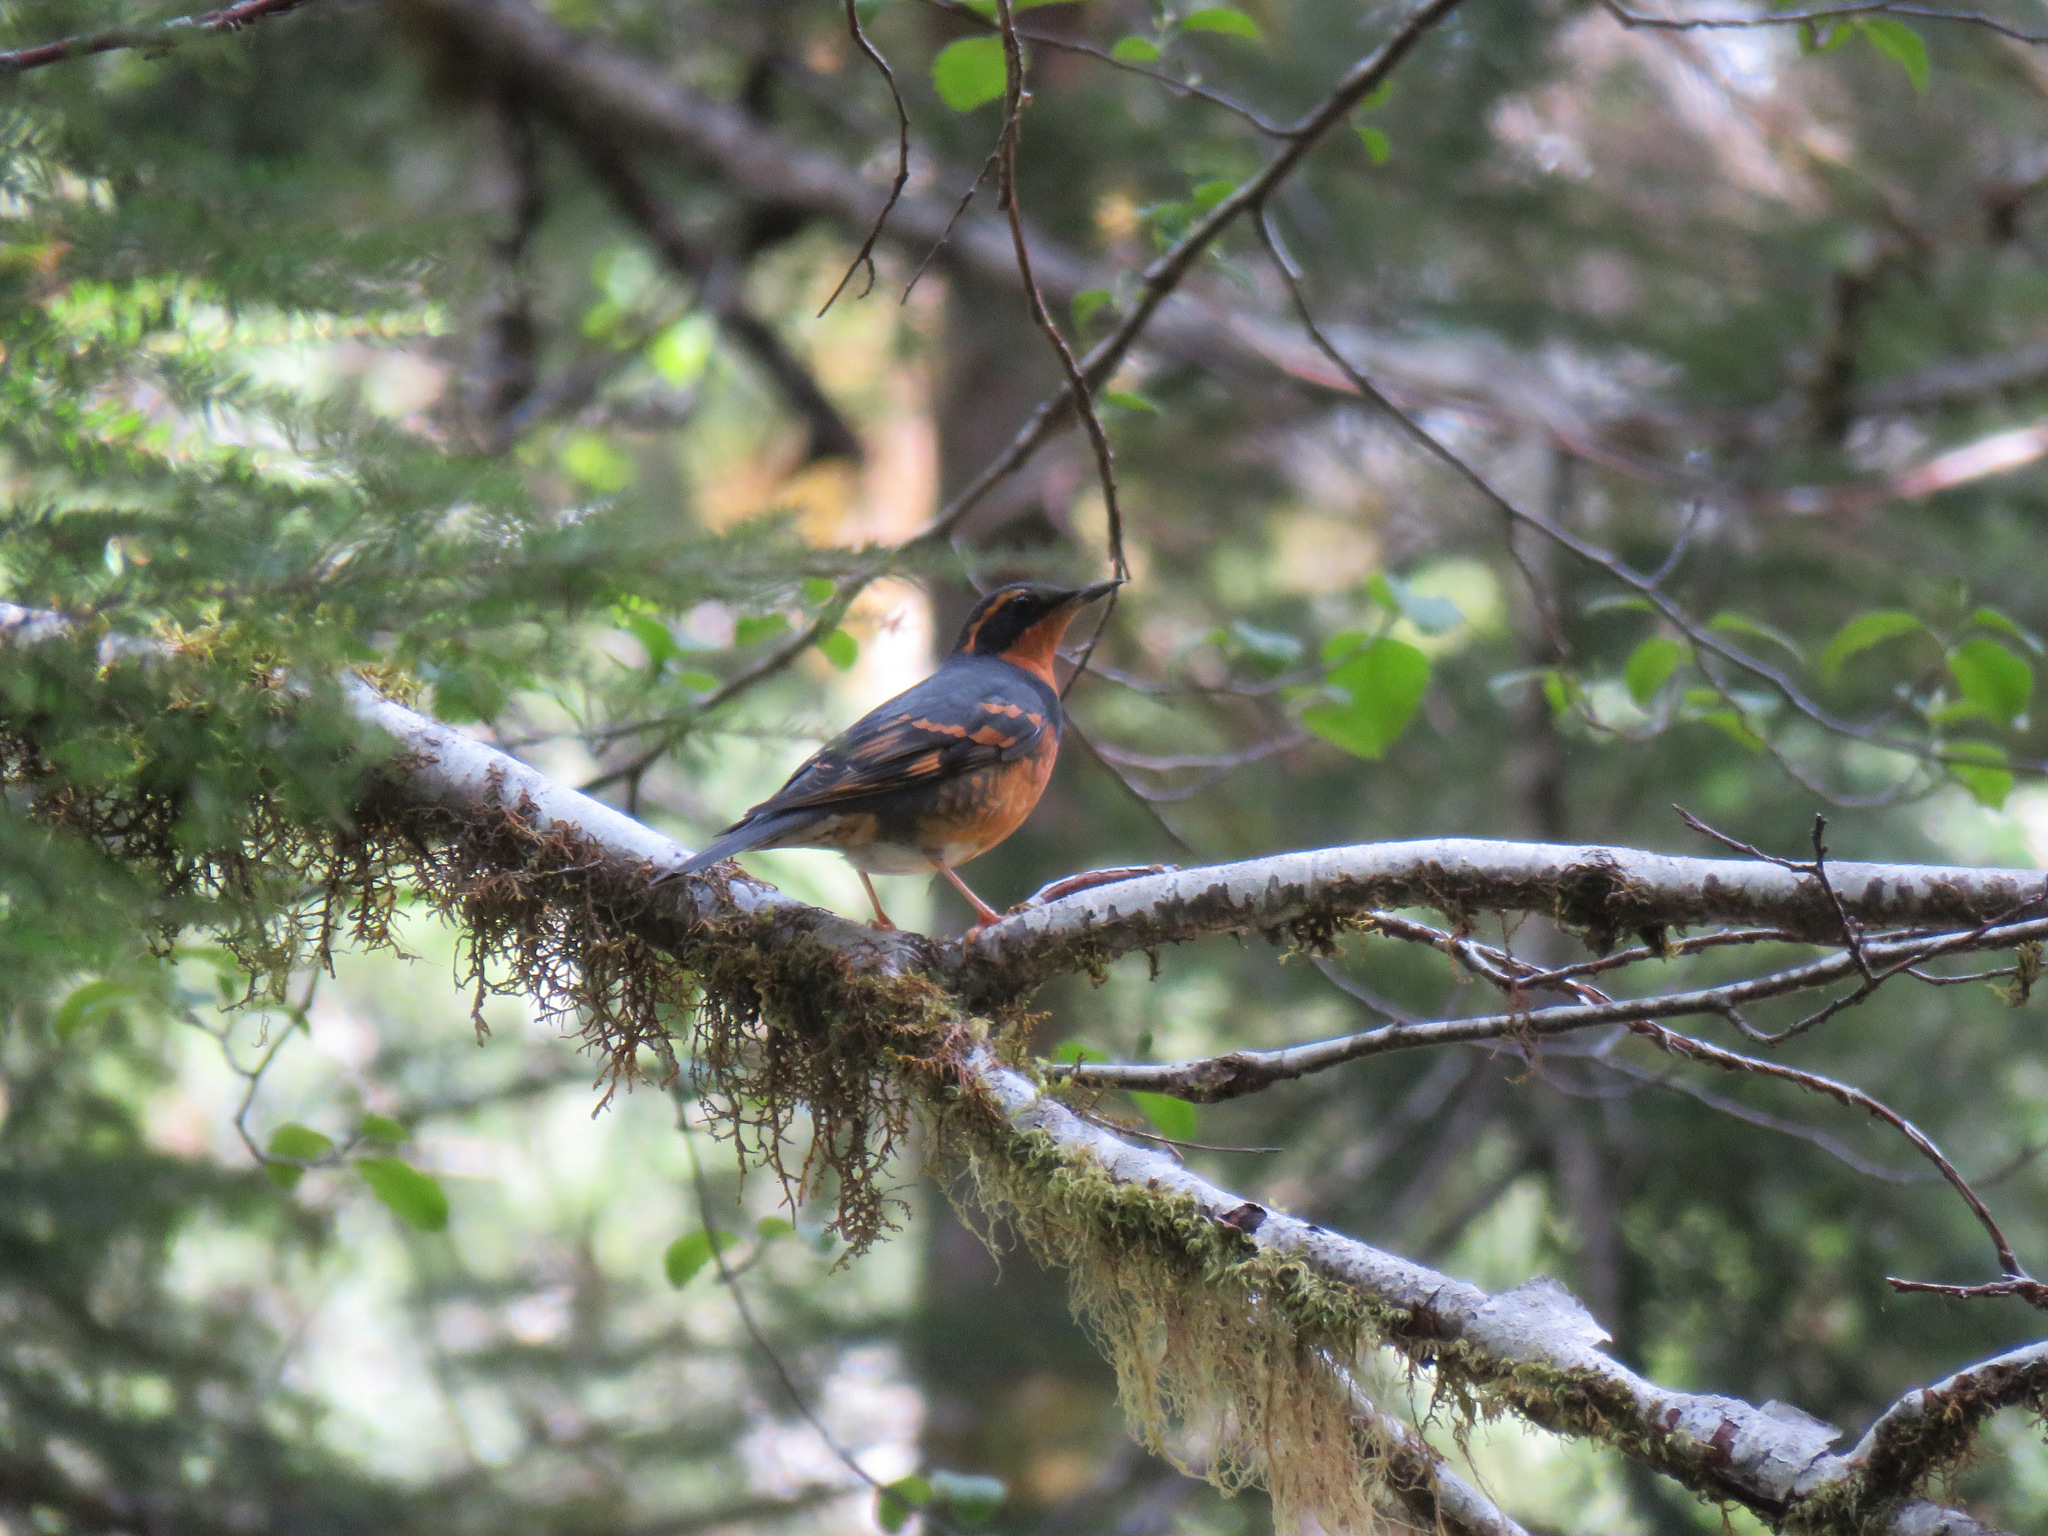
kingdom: Animalia
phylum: Chordata
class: Aves
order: Passeriformes
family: Turdidae
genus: Ixoreus
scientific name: Ixoreus naevius
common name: Varied thrush
